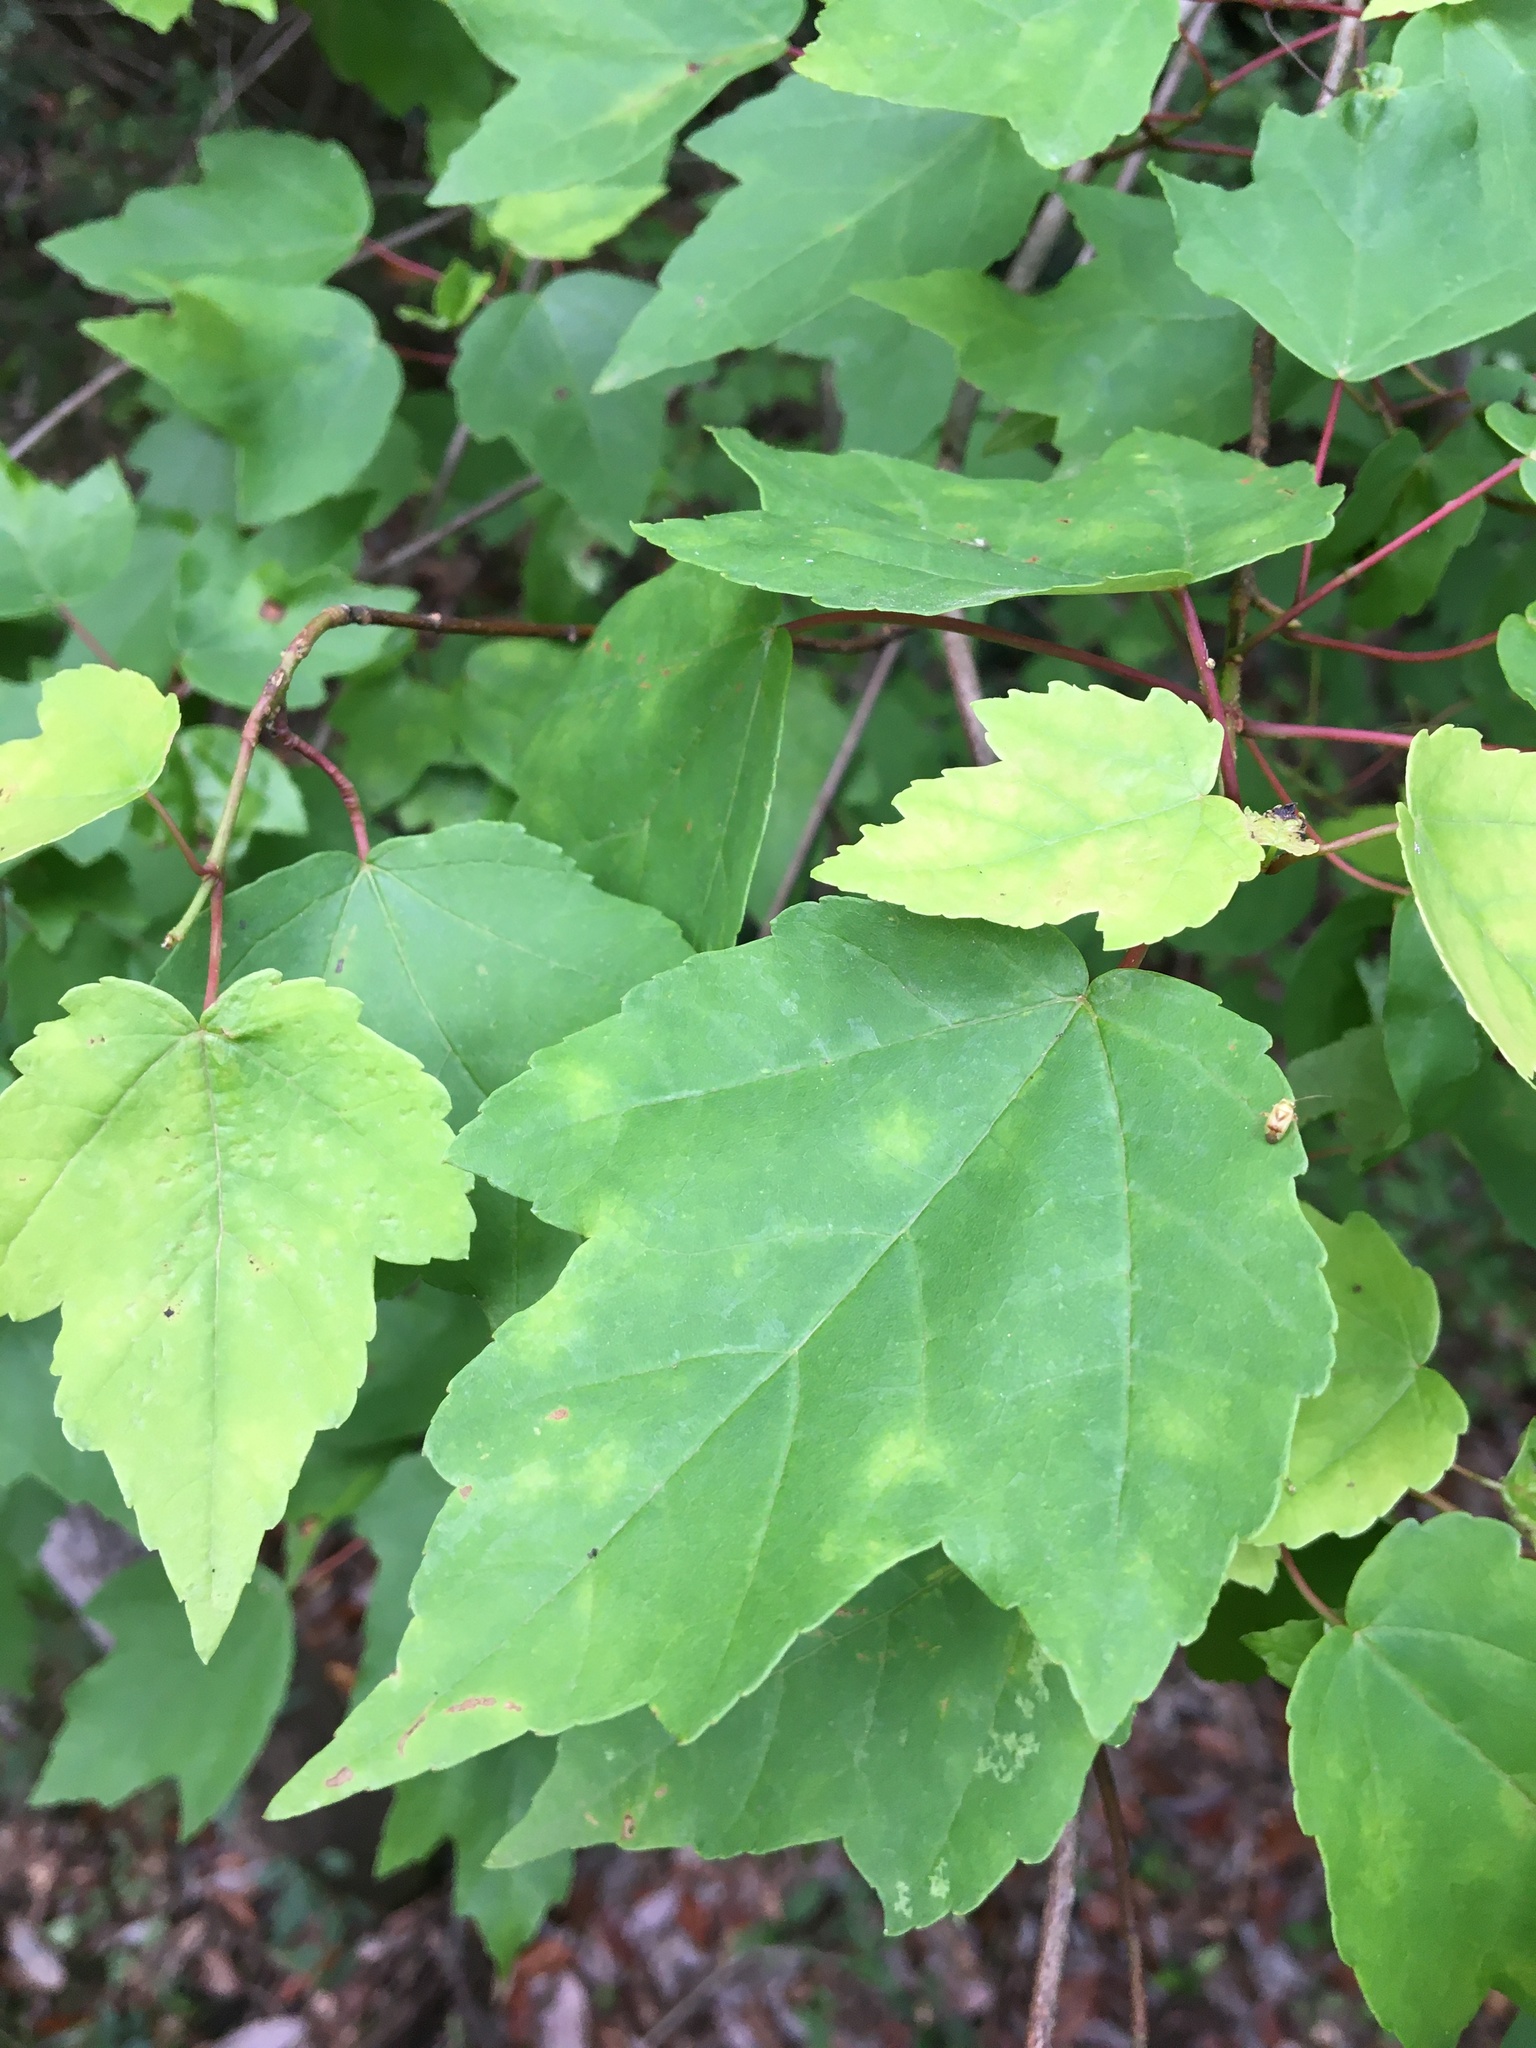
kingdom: Plantae
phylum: Tracheophyta
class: Magnoliopsida
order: Sapindales
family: Sapindaceae
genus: Acer
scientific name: Acer rubrum
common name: Red maple
